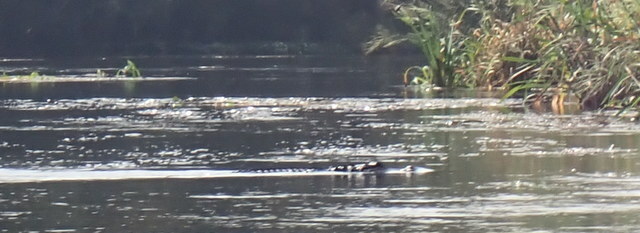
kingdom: Animalia
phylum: Chordata
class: Crocodylia
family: Alligatoridae
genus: Alligator
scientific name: Alligator mississippiensis
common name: American alligator
